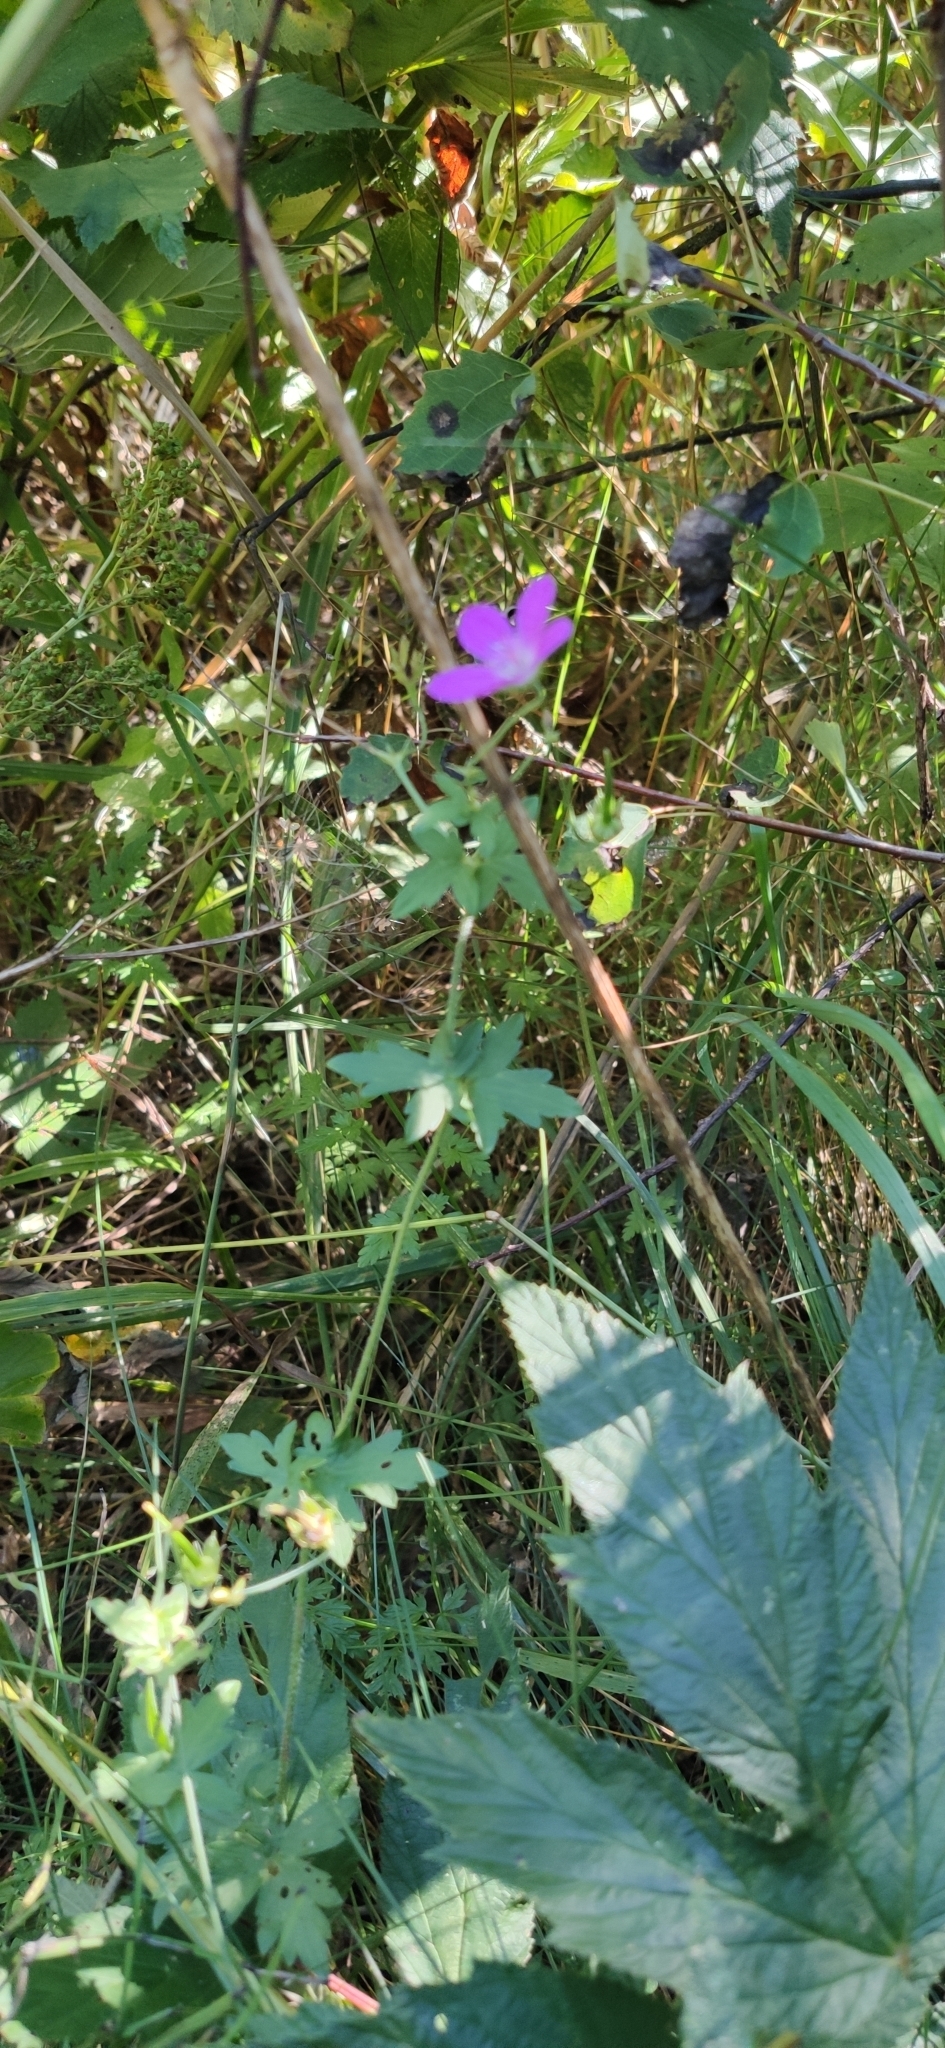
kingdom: Plantae
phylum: Tracheophyta
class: Magnoliopsida
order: Geraniales
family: Geraniaceae
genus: Geranium
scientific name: Geranium palustre
